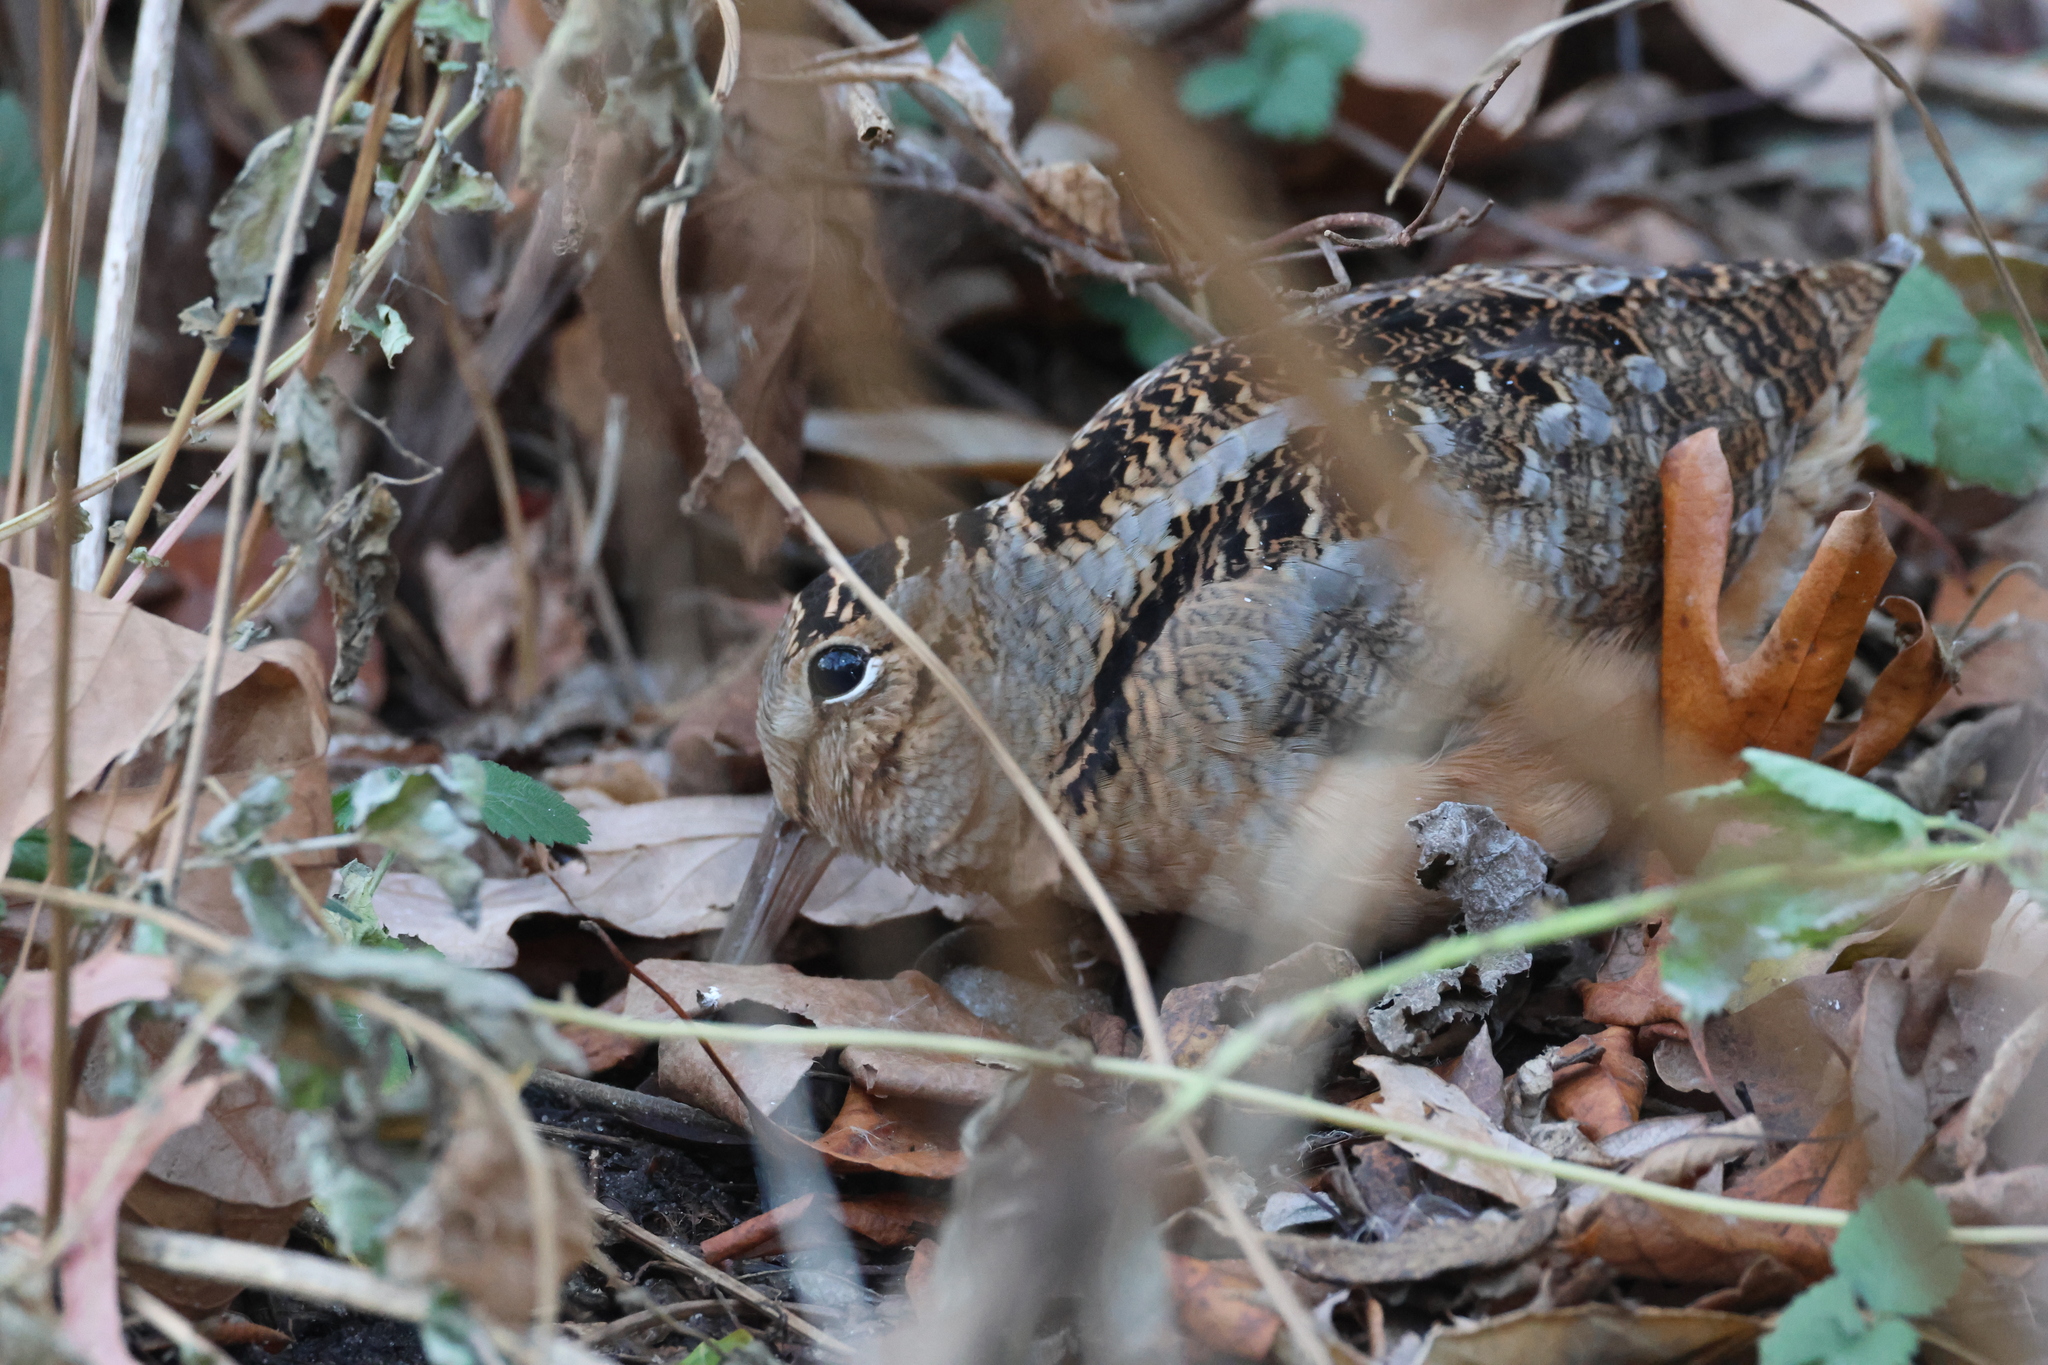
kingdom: Animalia
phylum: Chordata
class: Aves
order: Charadriiformes
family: Scolopacidae
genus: Scolopax
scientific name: Scolopax minor
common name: American woodcock
